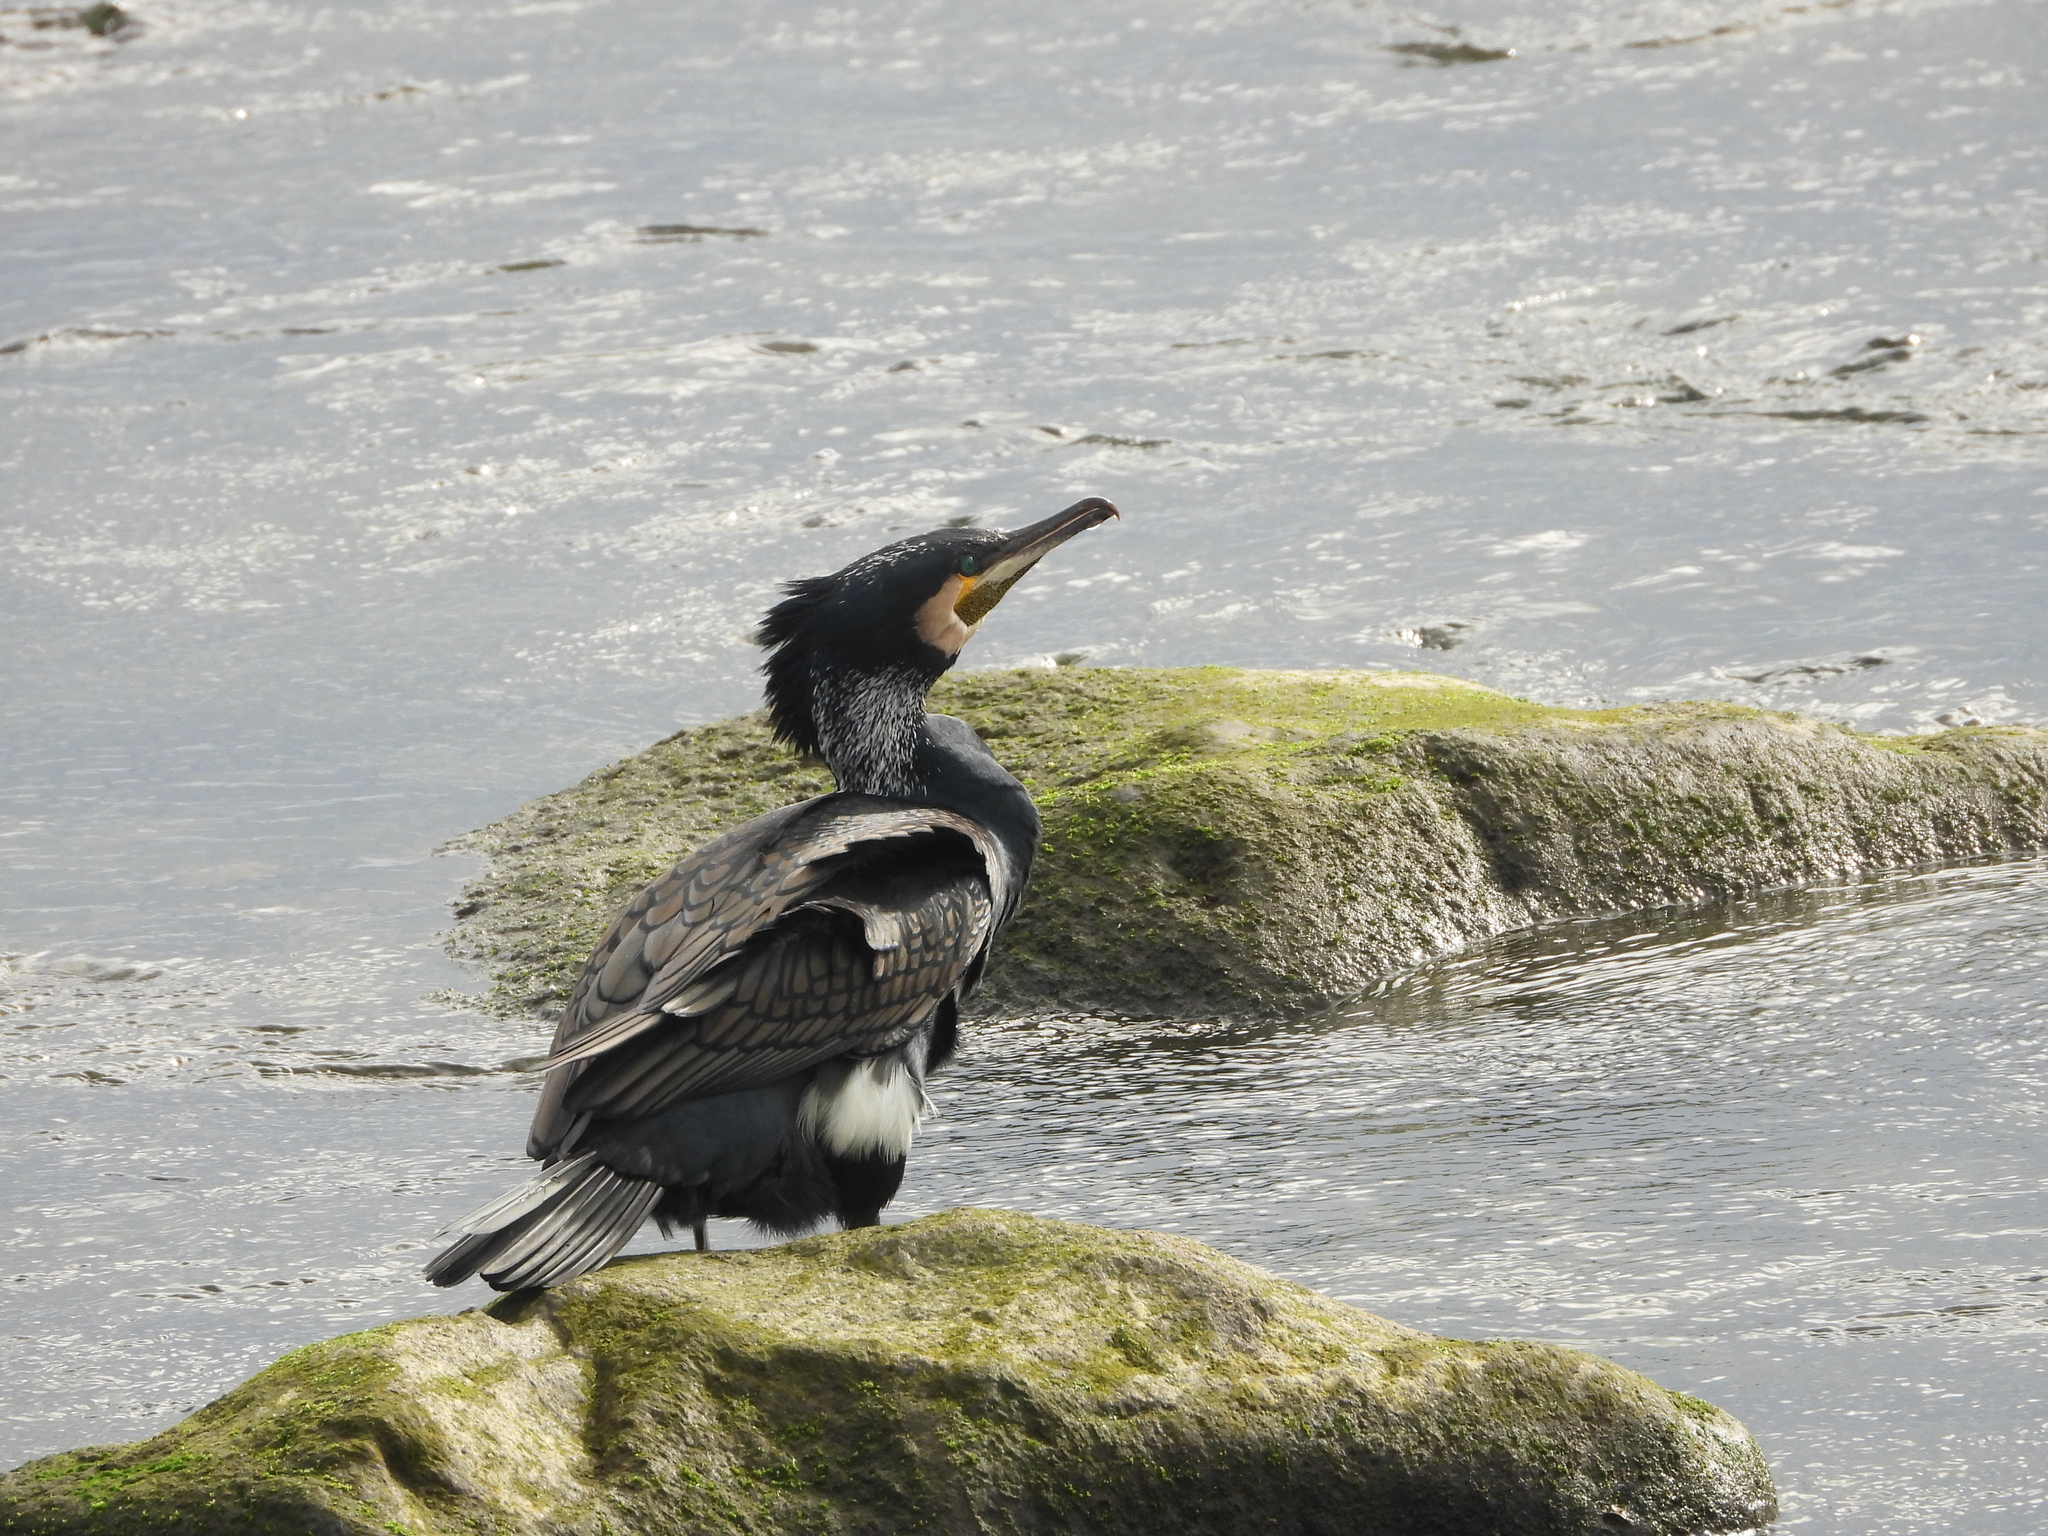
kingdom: Animalia
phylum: Chordata
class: Aves
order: Suliformes
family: Phalacrocoracidae
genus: Phalacrocorax
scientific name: Phalacrocorax carbo
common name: Great cormorant
